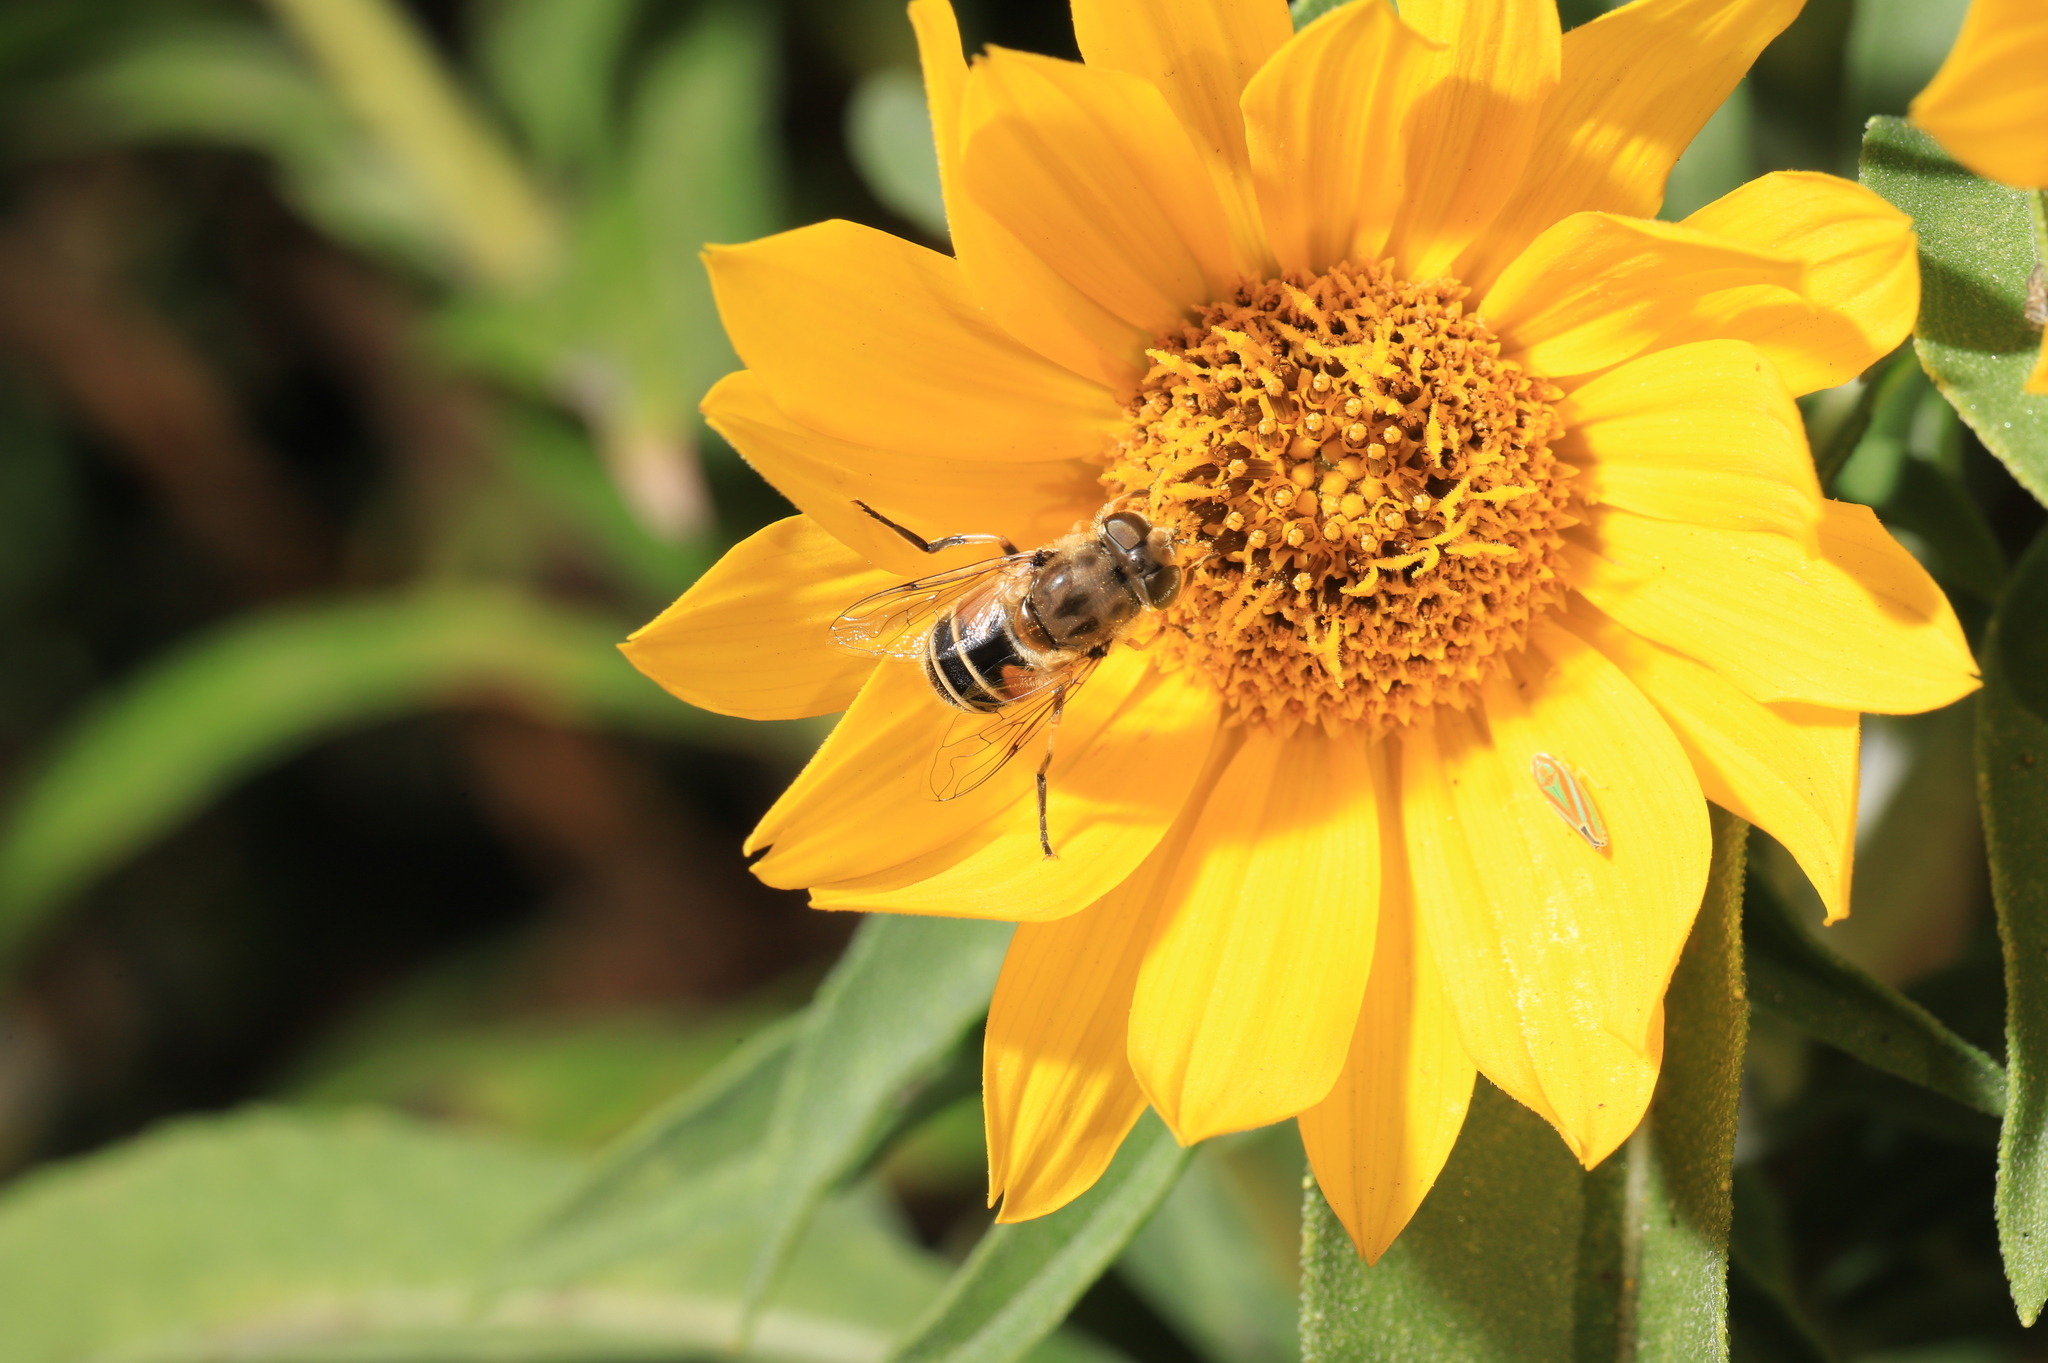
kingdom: Animalia
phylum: Arthropoda
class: Insecta
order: Hemiptera
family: Cicadellidae
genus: Graphocephala
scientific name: Graphocephala versuta
